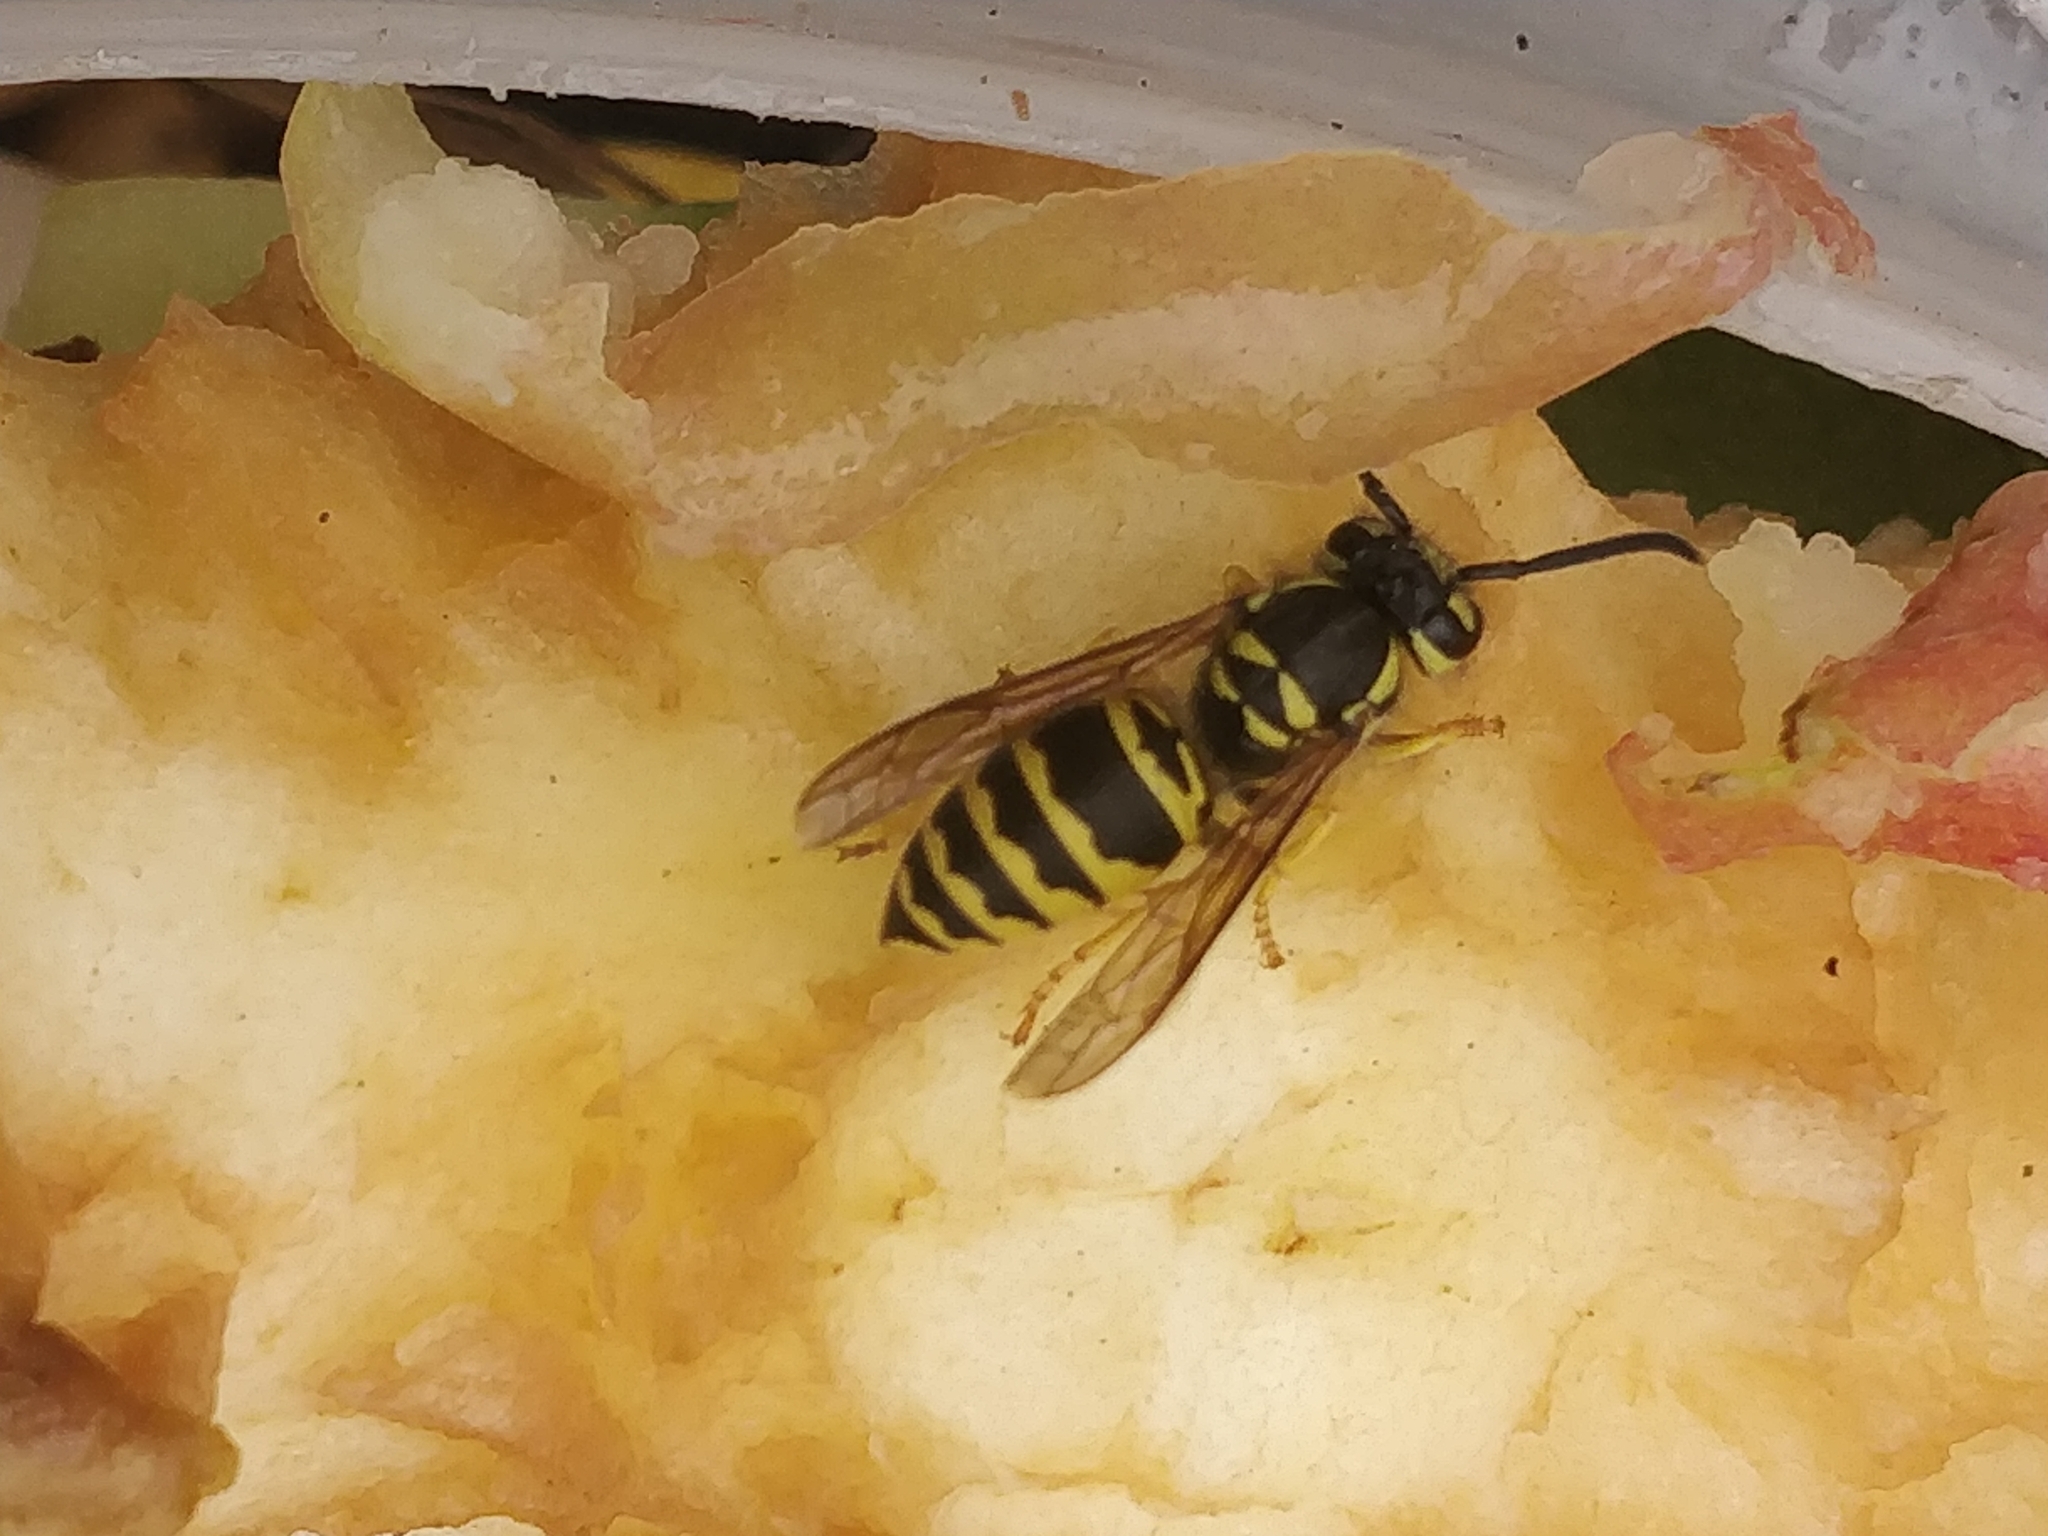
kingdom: Animalia
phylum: Arthropoda
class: Insecta
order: Hymenoptera
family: Vespidae
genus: Vespula
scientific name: Vespula maculifrons
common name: Eastern yellowjacket
